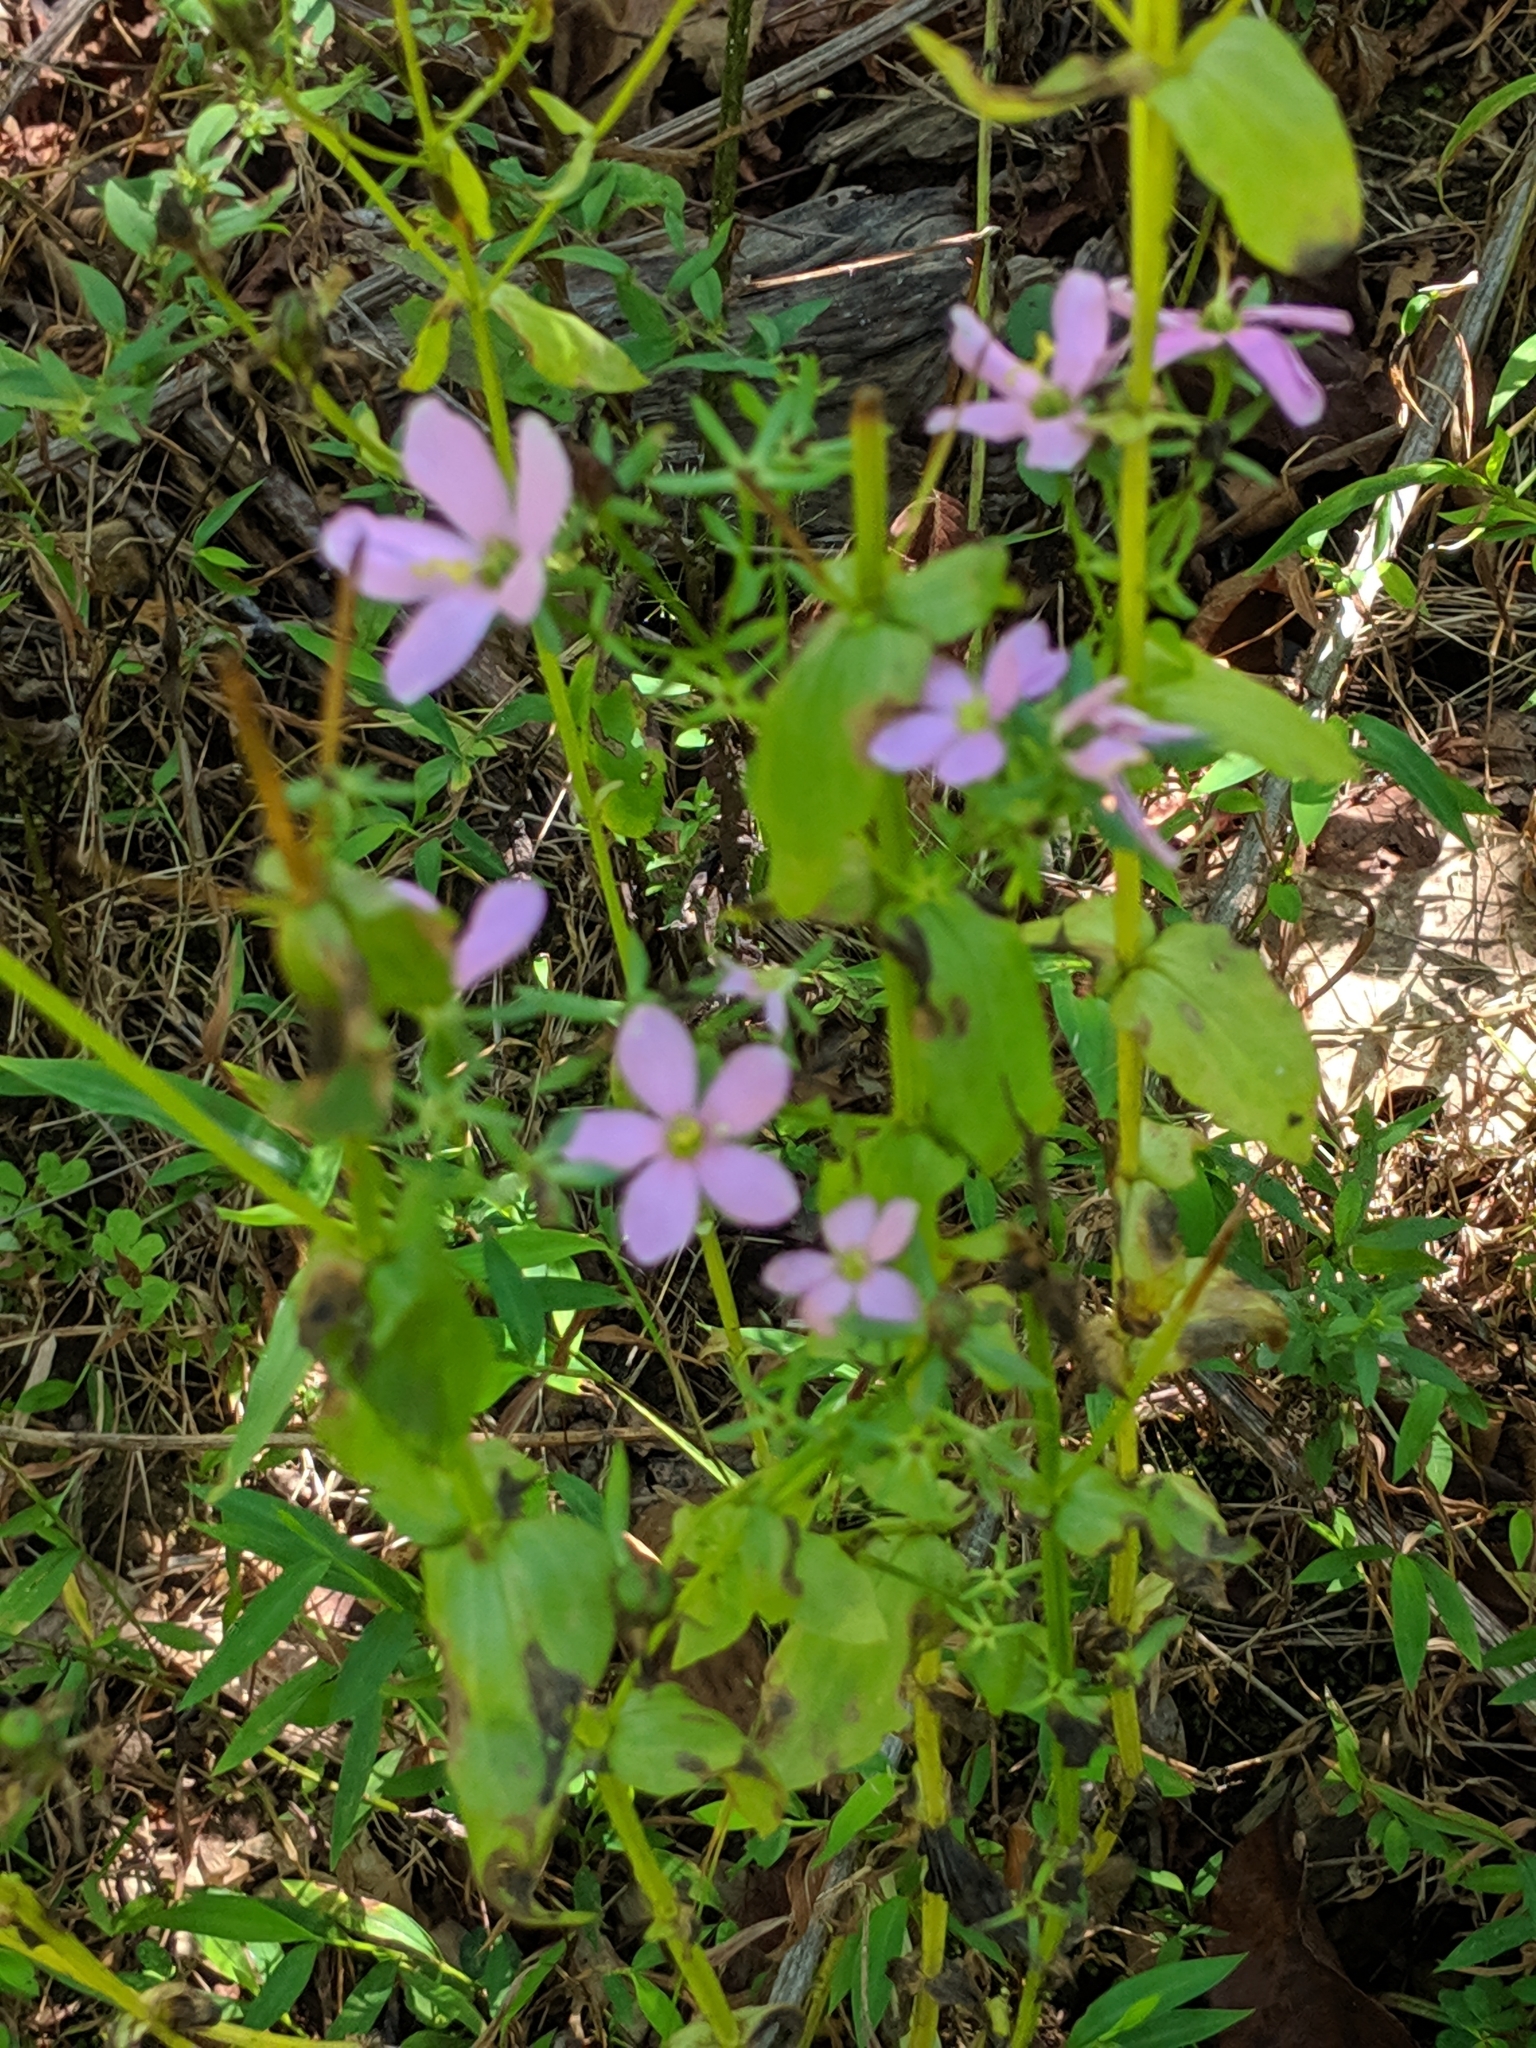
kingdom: Plantae
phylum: Tracheophyta
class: Magnoliopsida
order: Gentianales
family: Gentianaceae
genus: Sabatia
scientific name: Sabatia angularis
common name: Rose-pink
